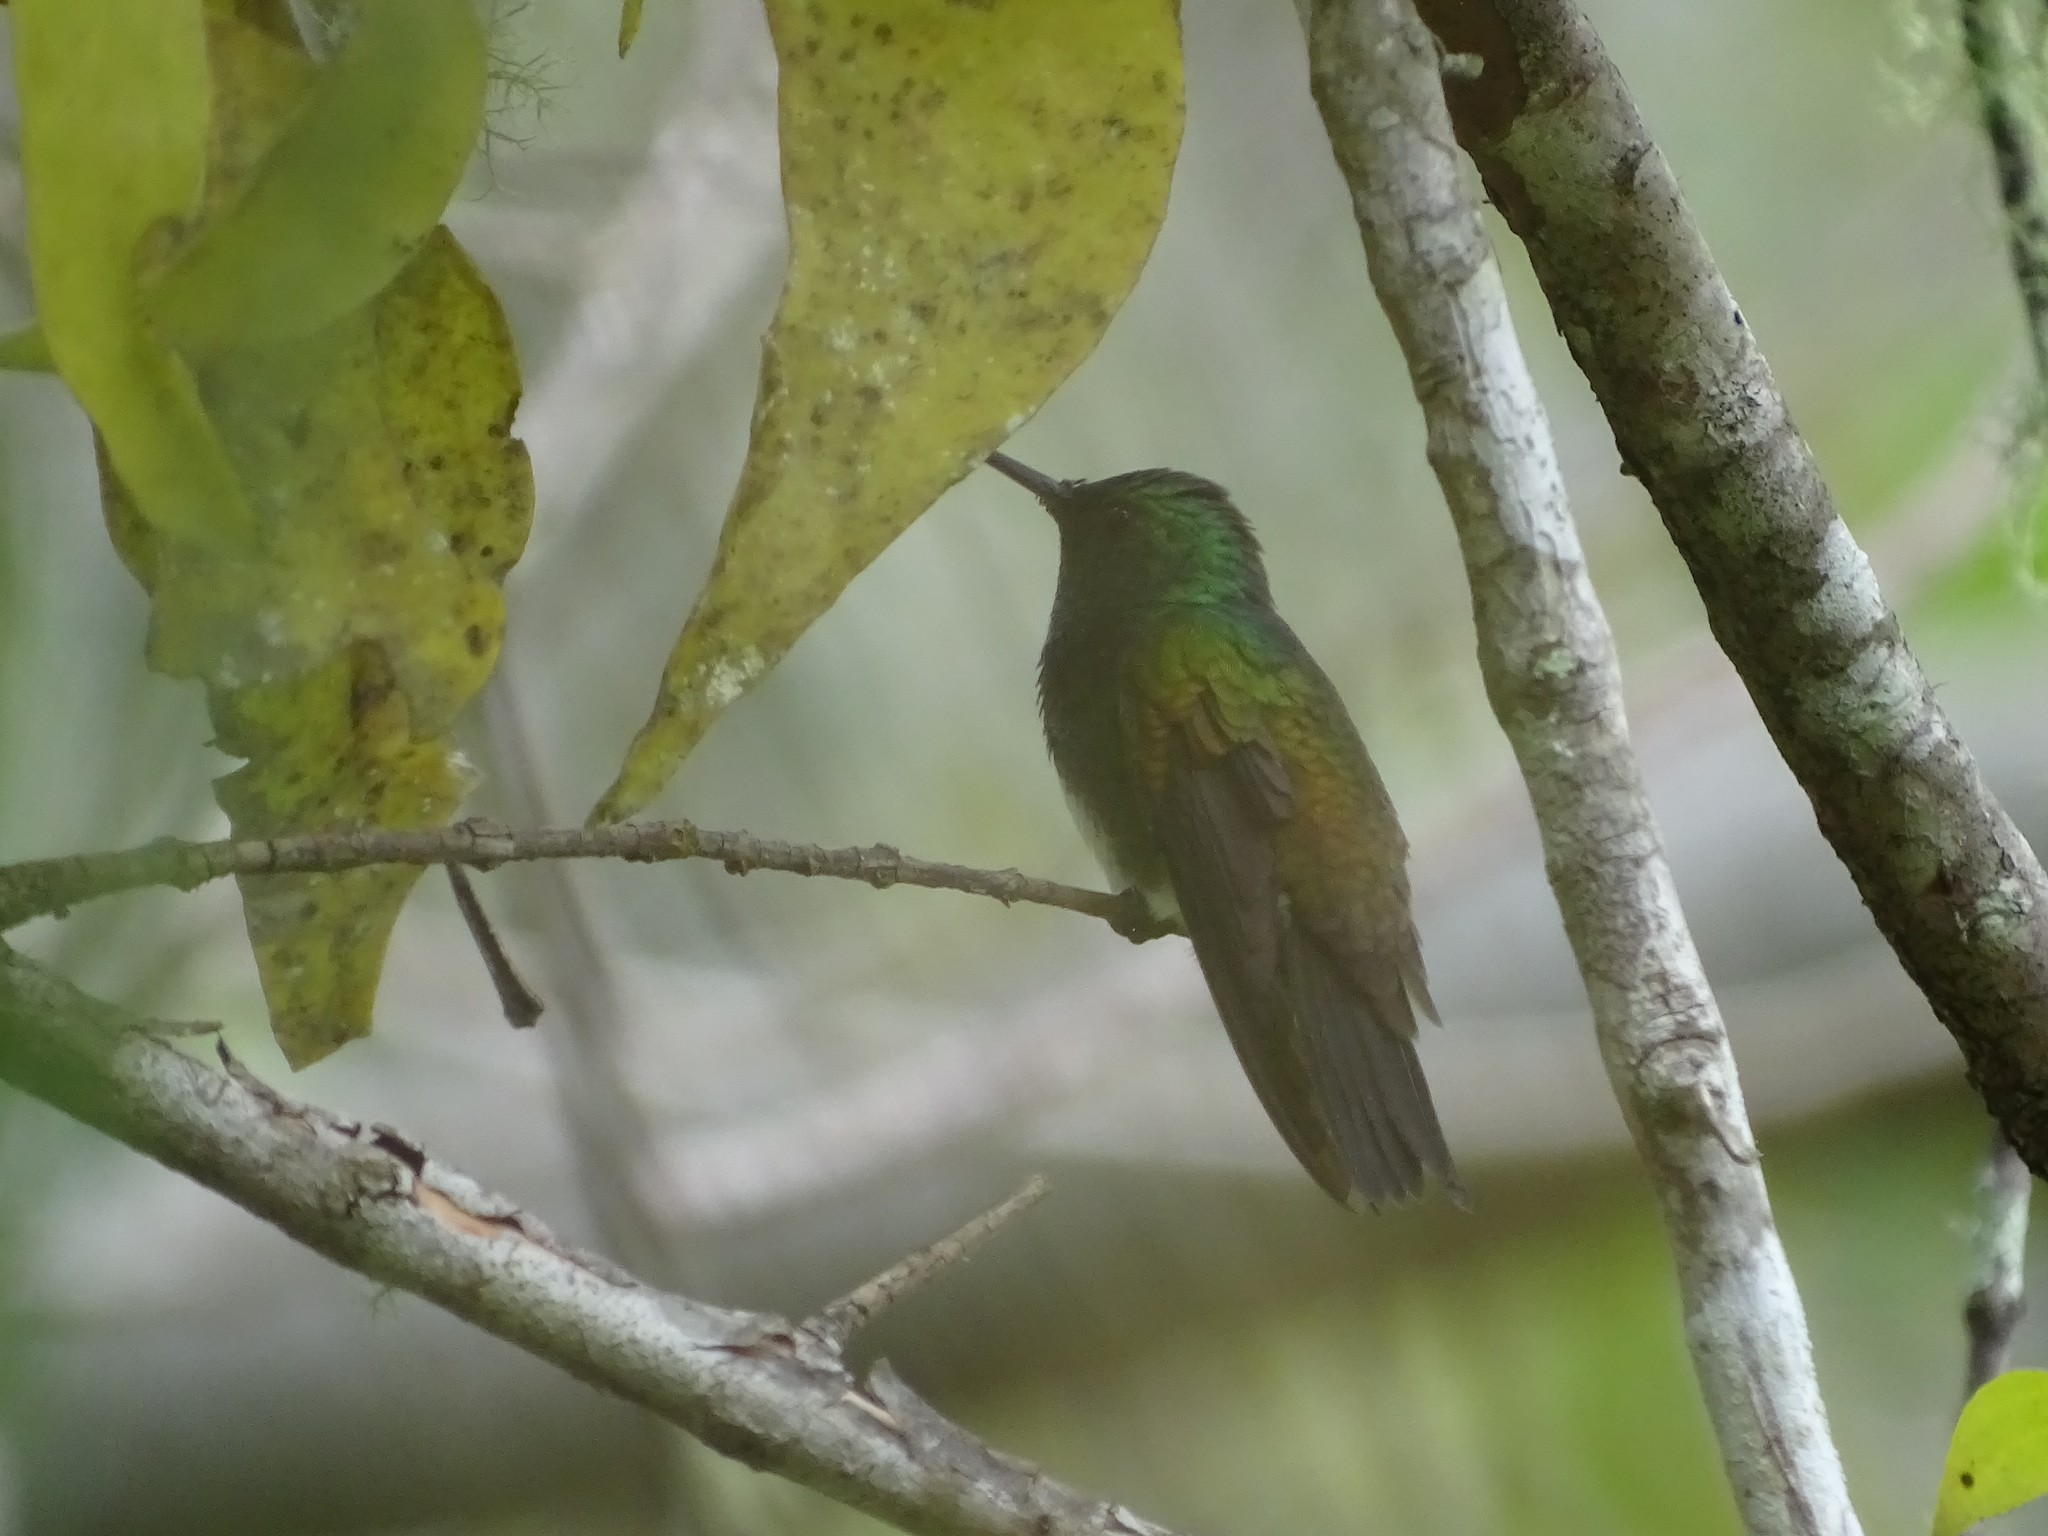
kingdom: Animalia
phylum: Chordata
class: Aves
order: Apodiformes
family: Trochilidae
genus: Saucerottia
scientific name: Saucerottia edward
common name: Snowy-bellied hummingbird
